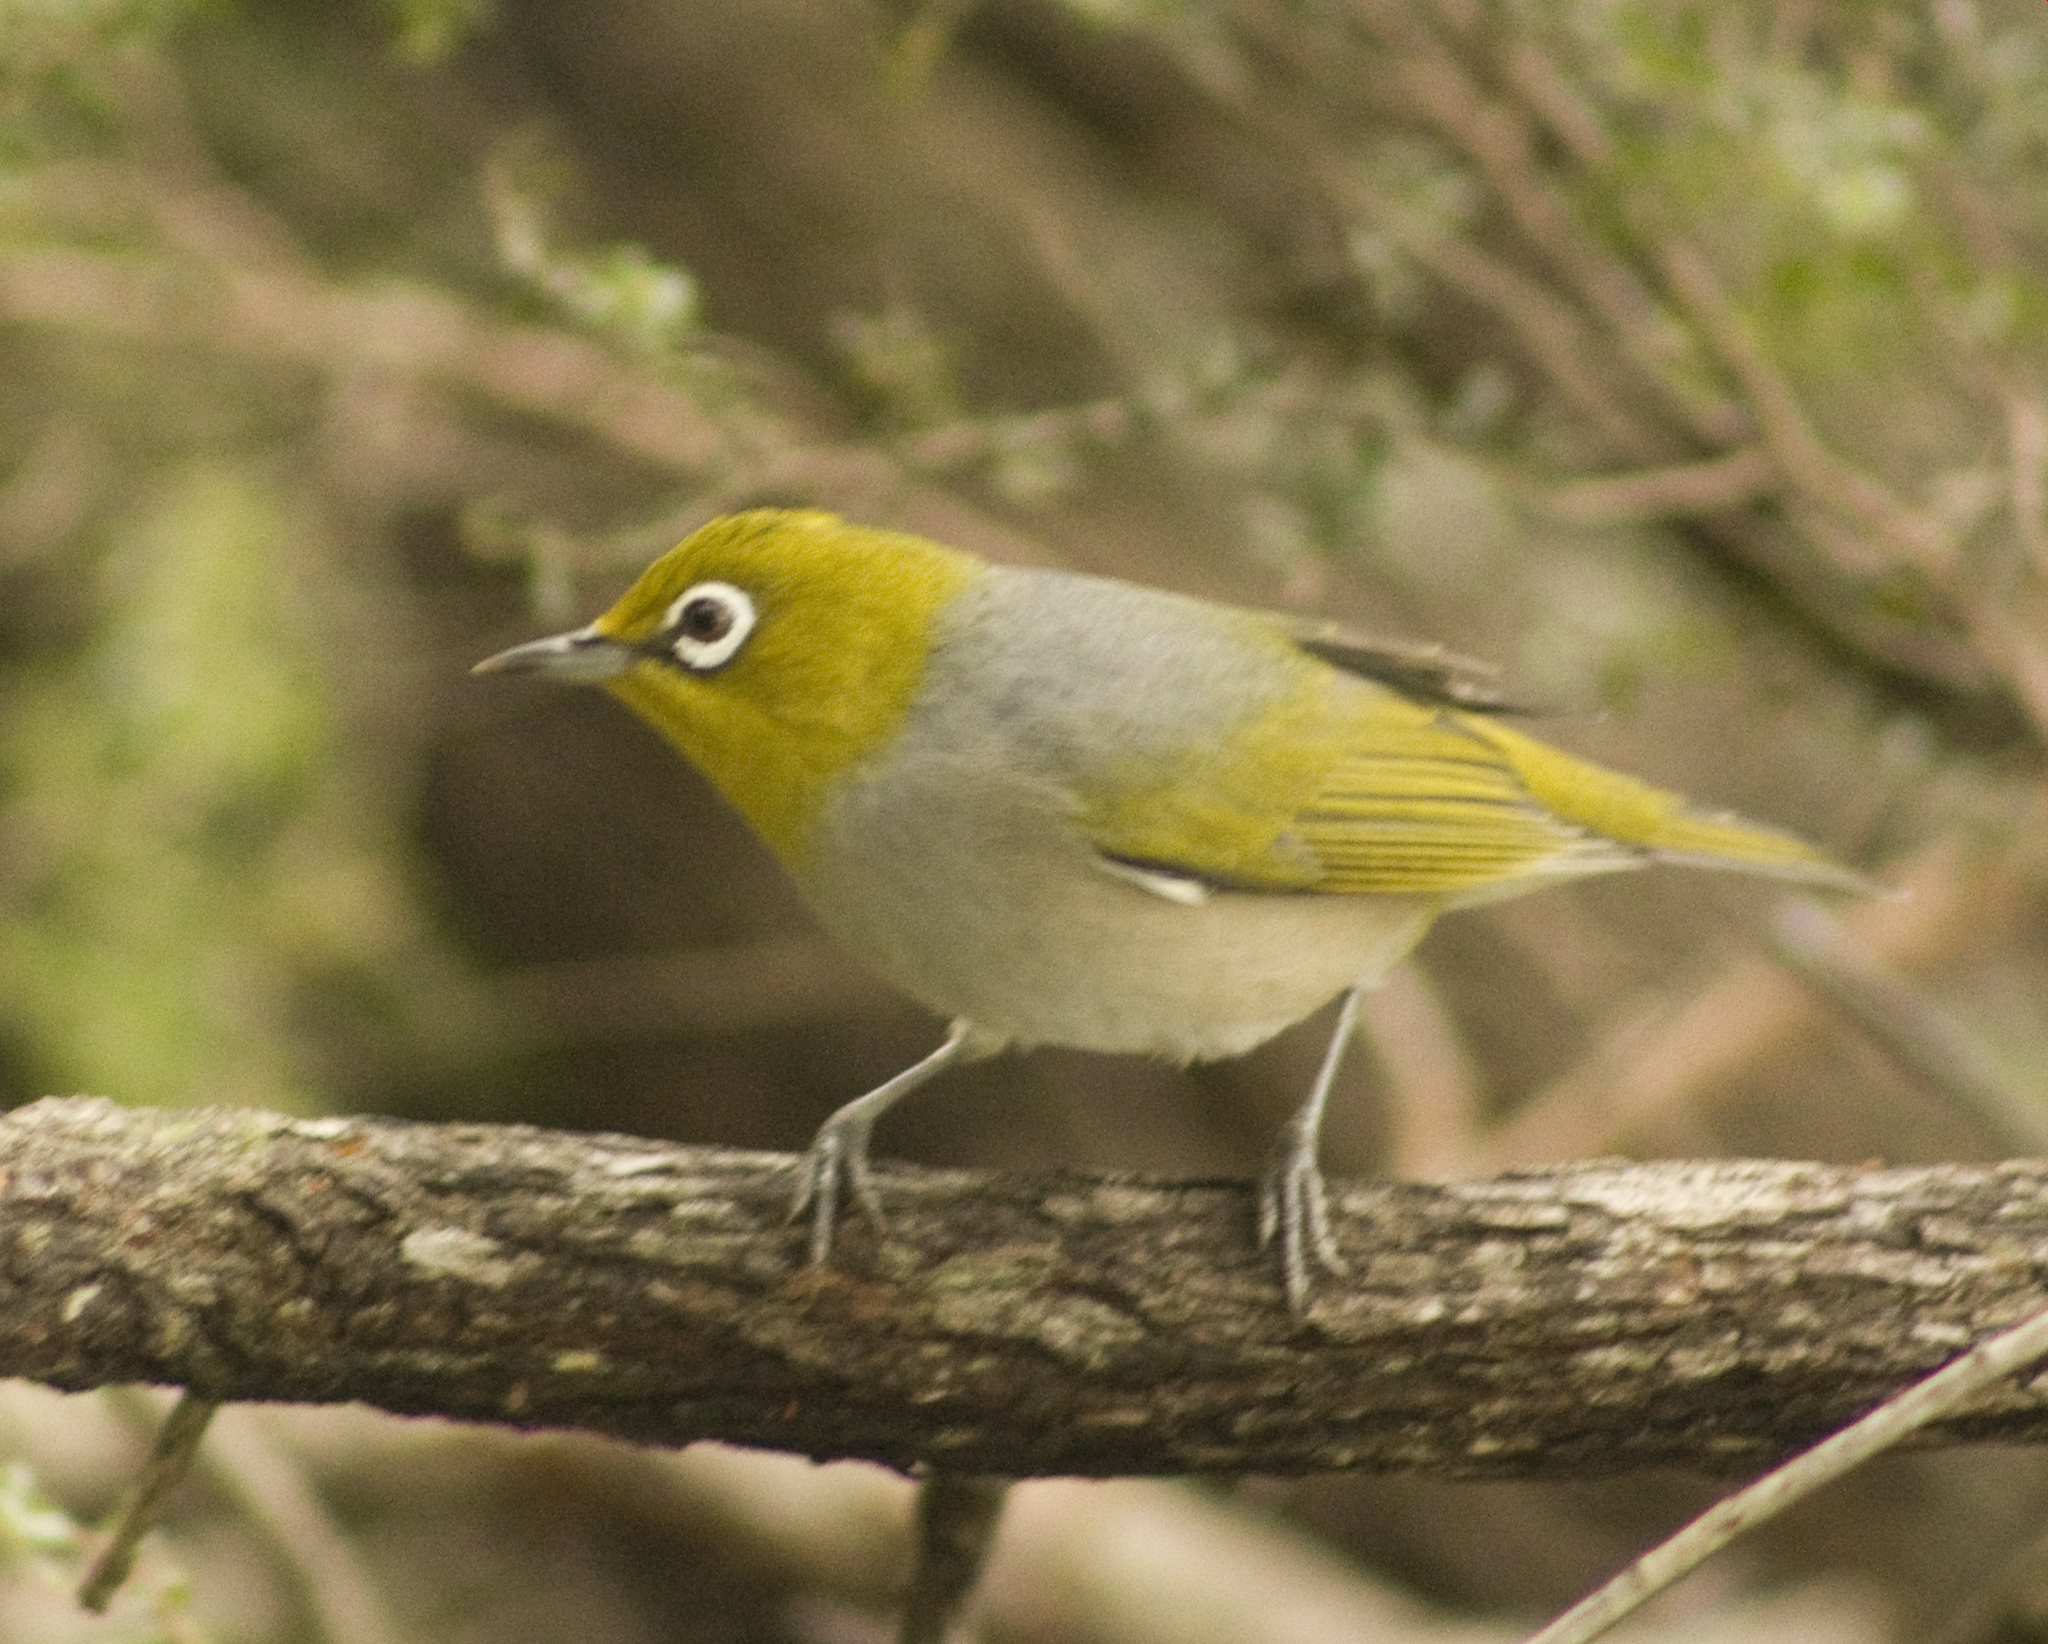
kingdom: Animalia
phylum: Chordata
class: Aves
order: Passeriformes
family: Zosteropidae
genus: Zosterops
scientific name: Zosterops lateralis
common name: Silvereye
